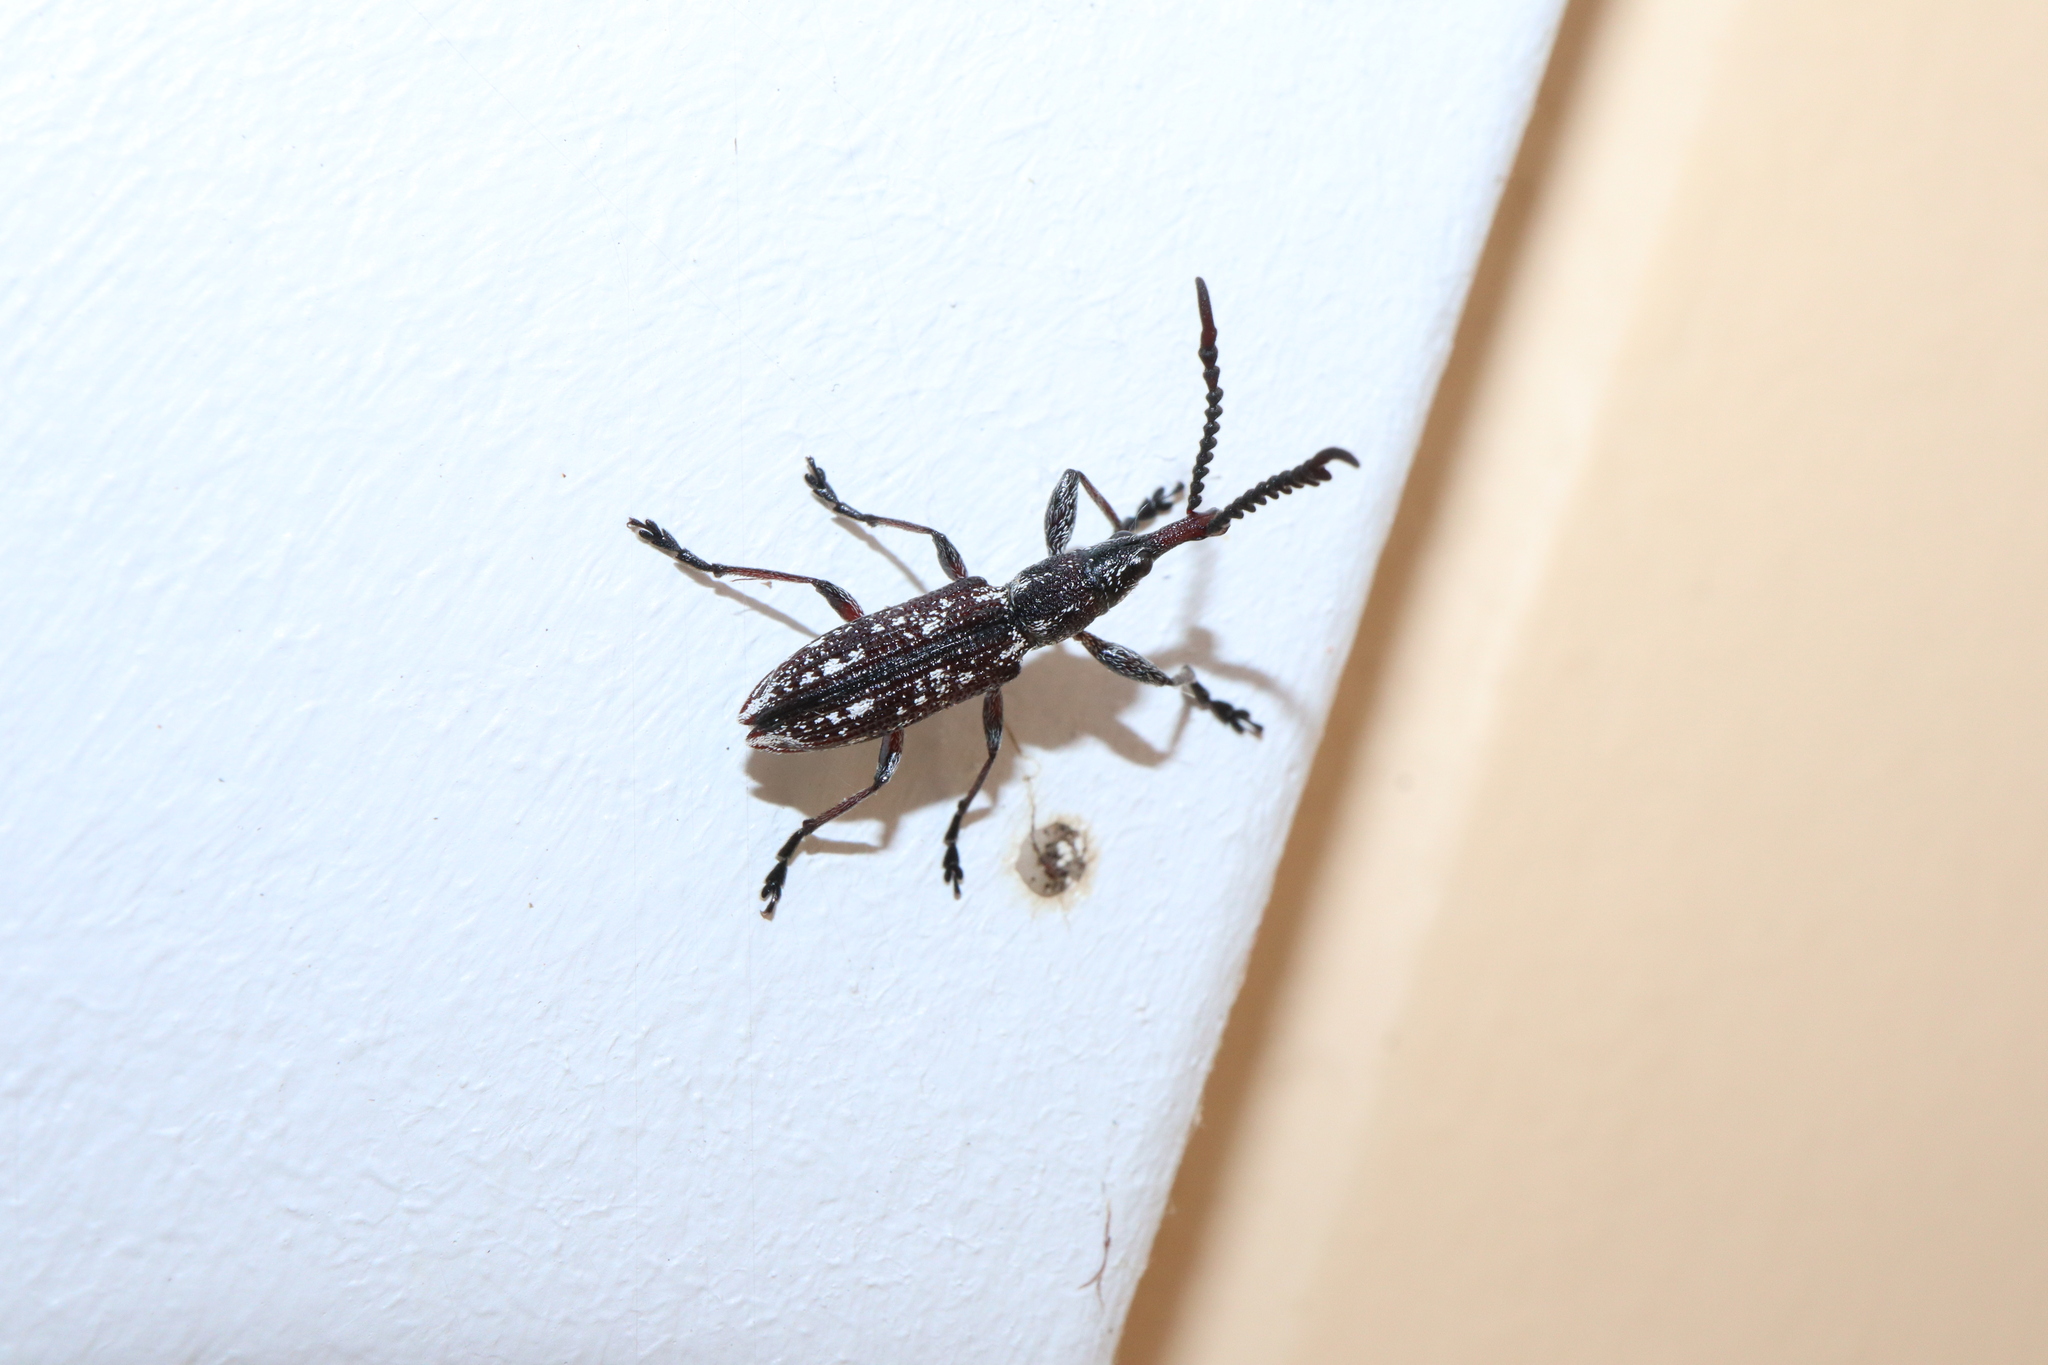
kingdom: Animalia
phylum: Arthropoda
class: Insecta
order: Coleoptera
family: Eurhynchidae
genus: Ctenaphides
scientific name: Ctenaphides porcellus
